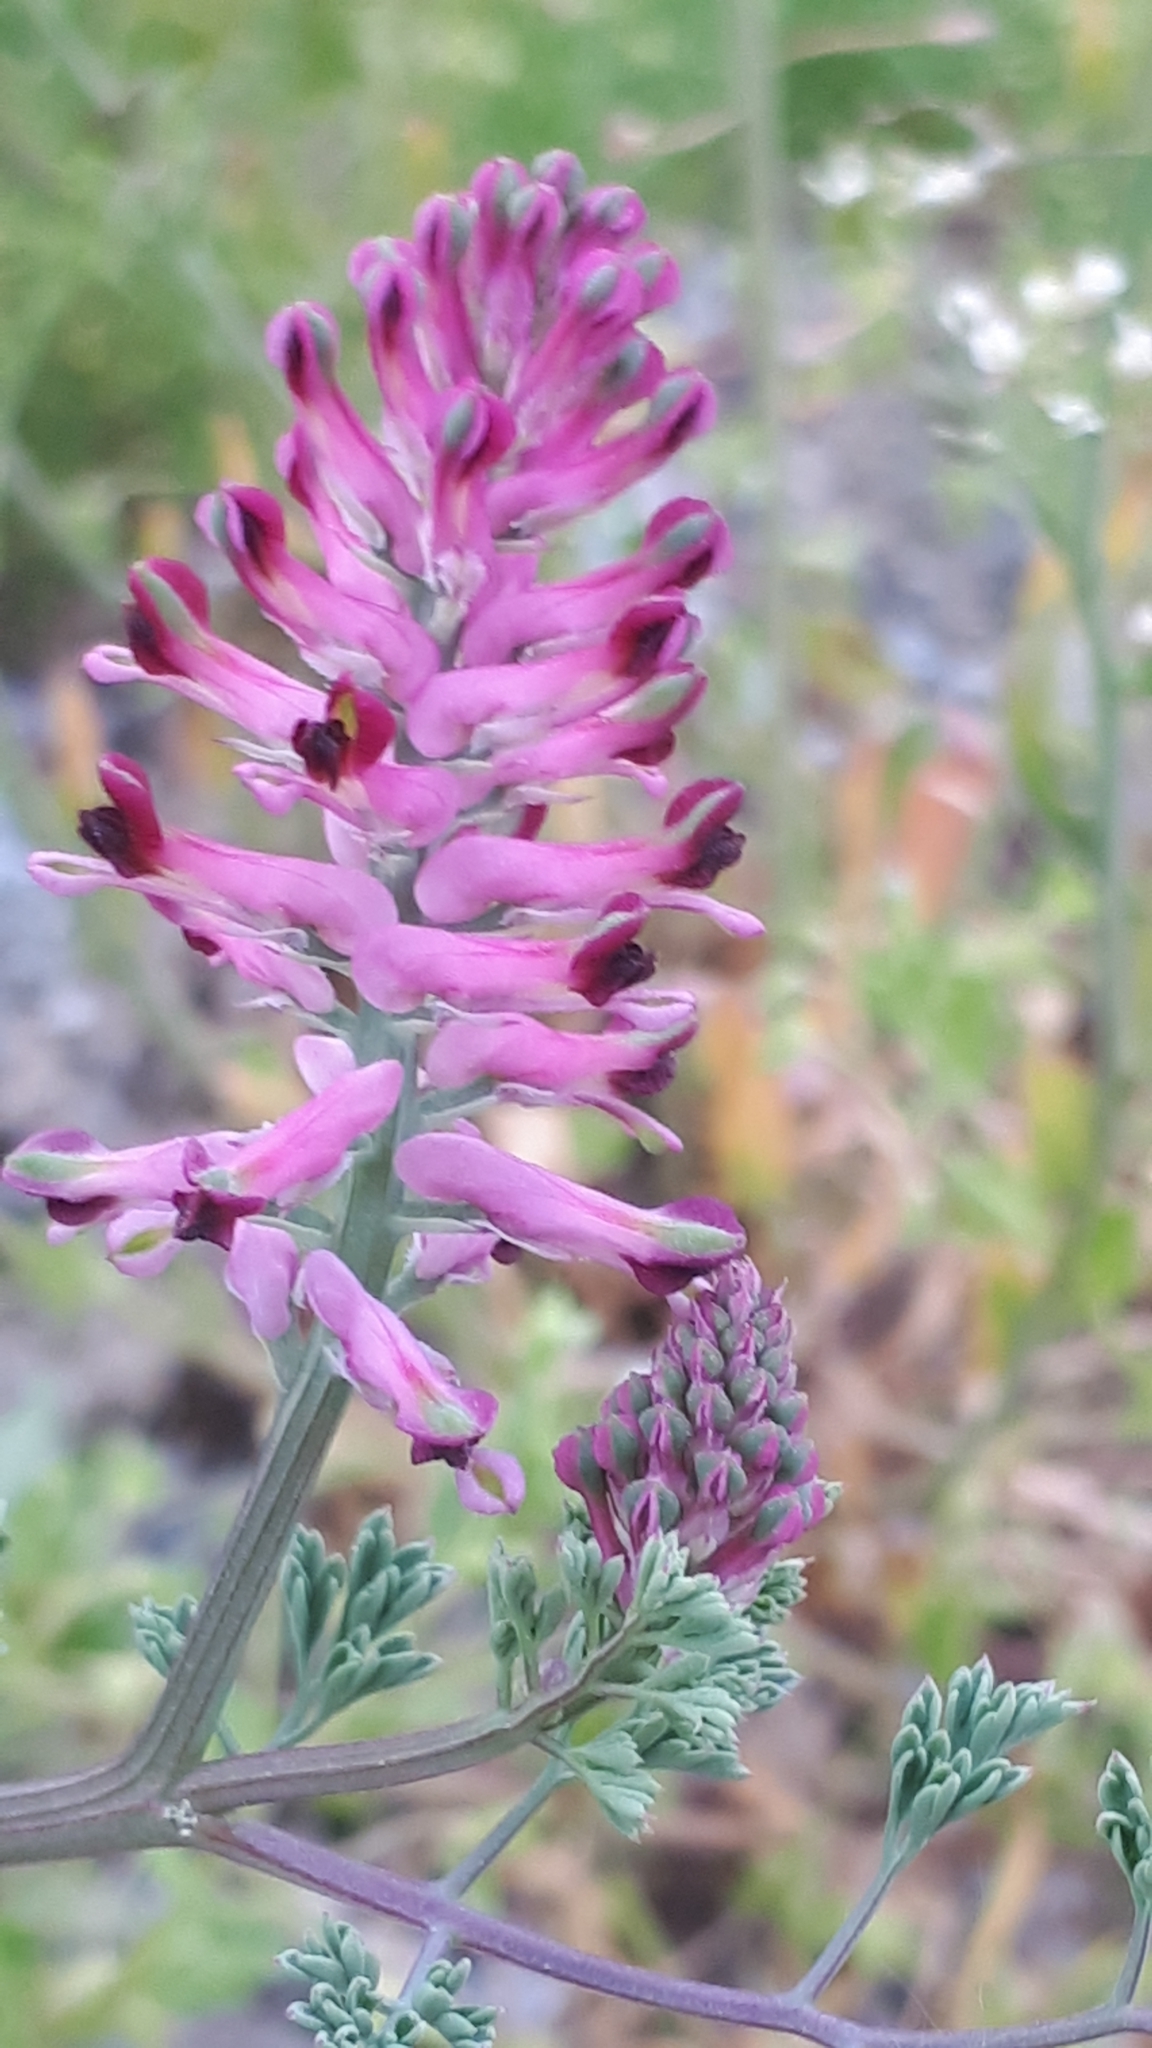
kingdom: Plantae
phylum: Tracheophyta
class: Magnoliopsida
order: Ranunculales
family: Papaveraceae
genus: Fumaria
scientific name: Fumaria officinalis
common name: Common fumitory
